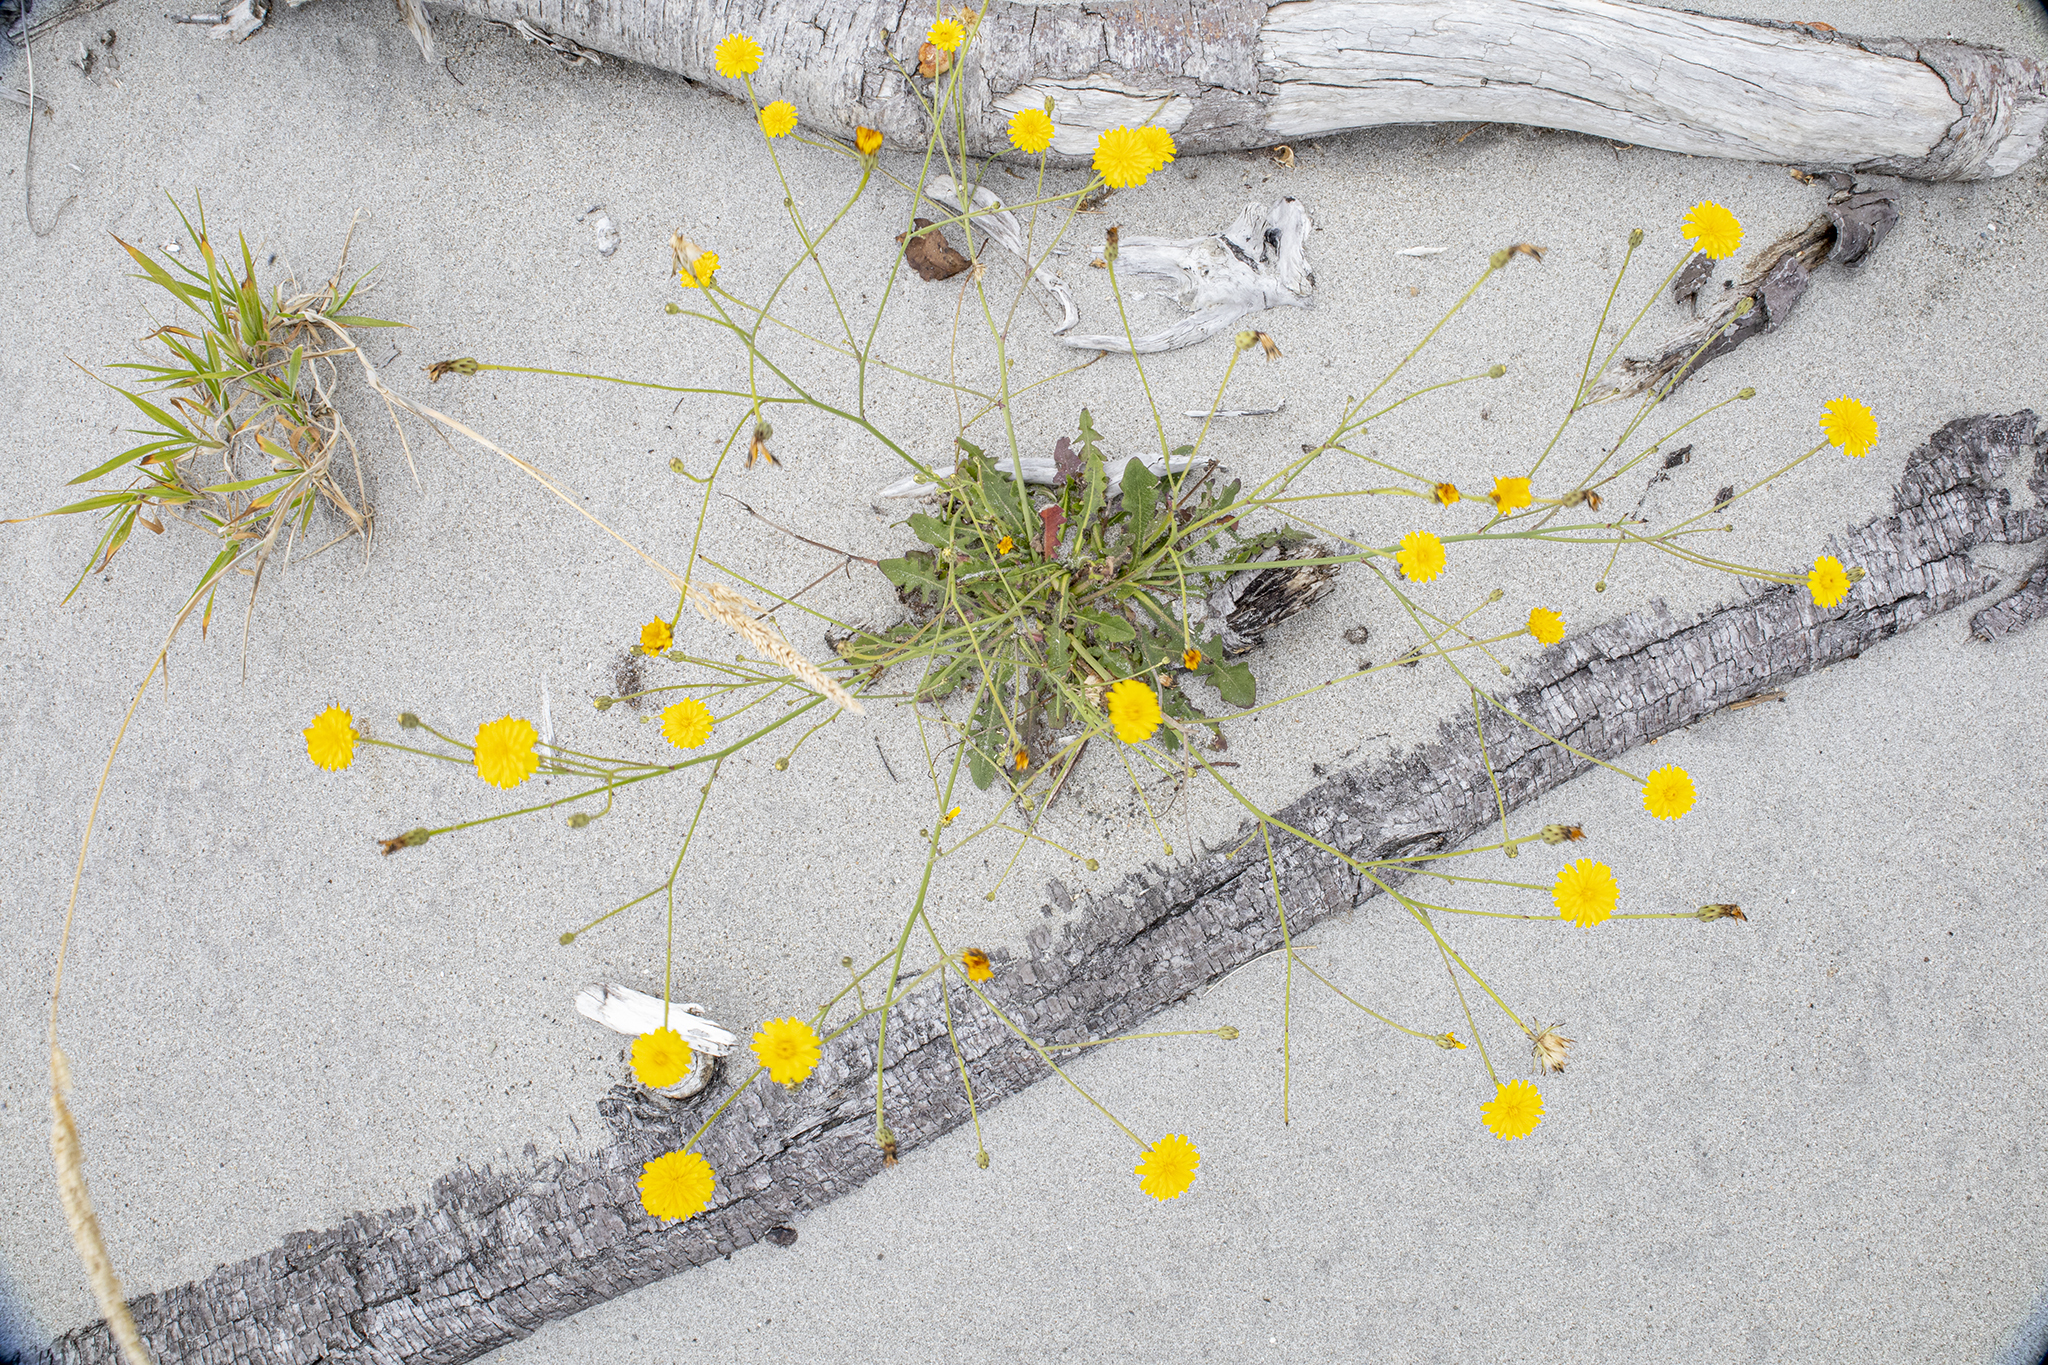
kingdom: Plantae
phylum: Tracheophyta
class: Magnoliopsida
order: Asterales
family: Asteraceae
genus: Hypochaeris
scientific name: Hypochaeris radicata
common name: Flatweed
